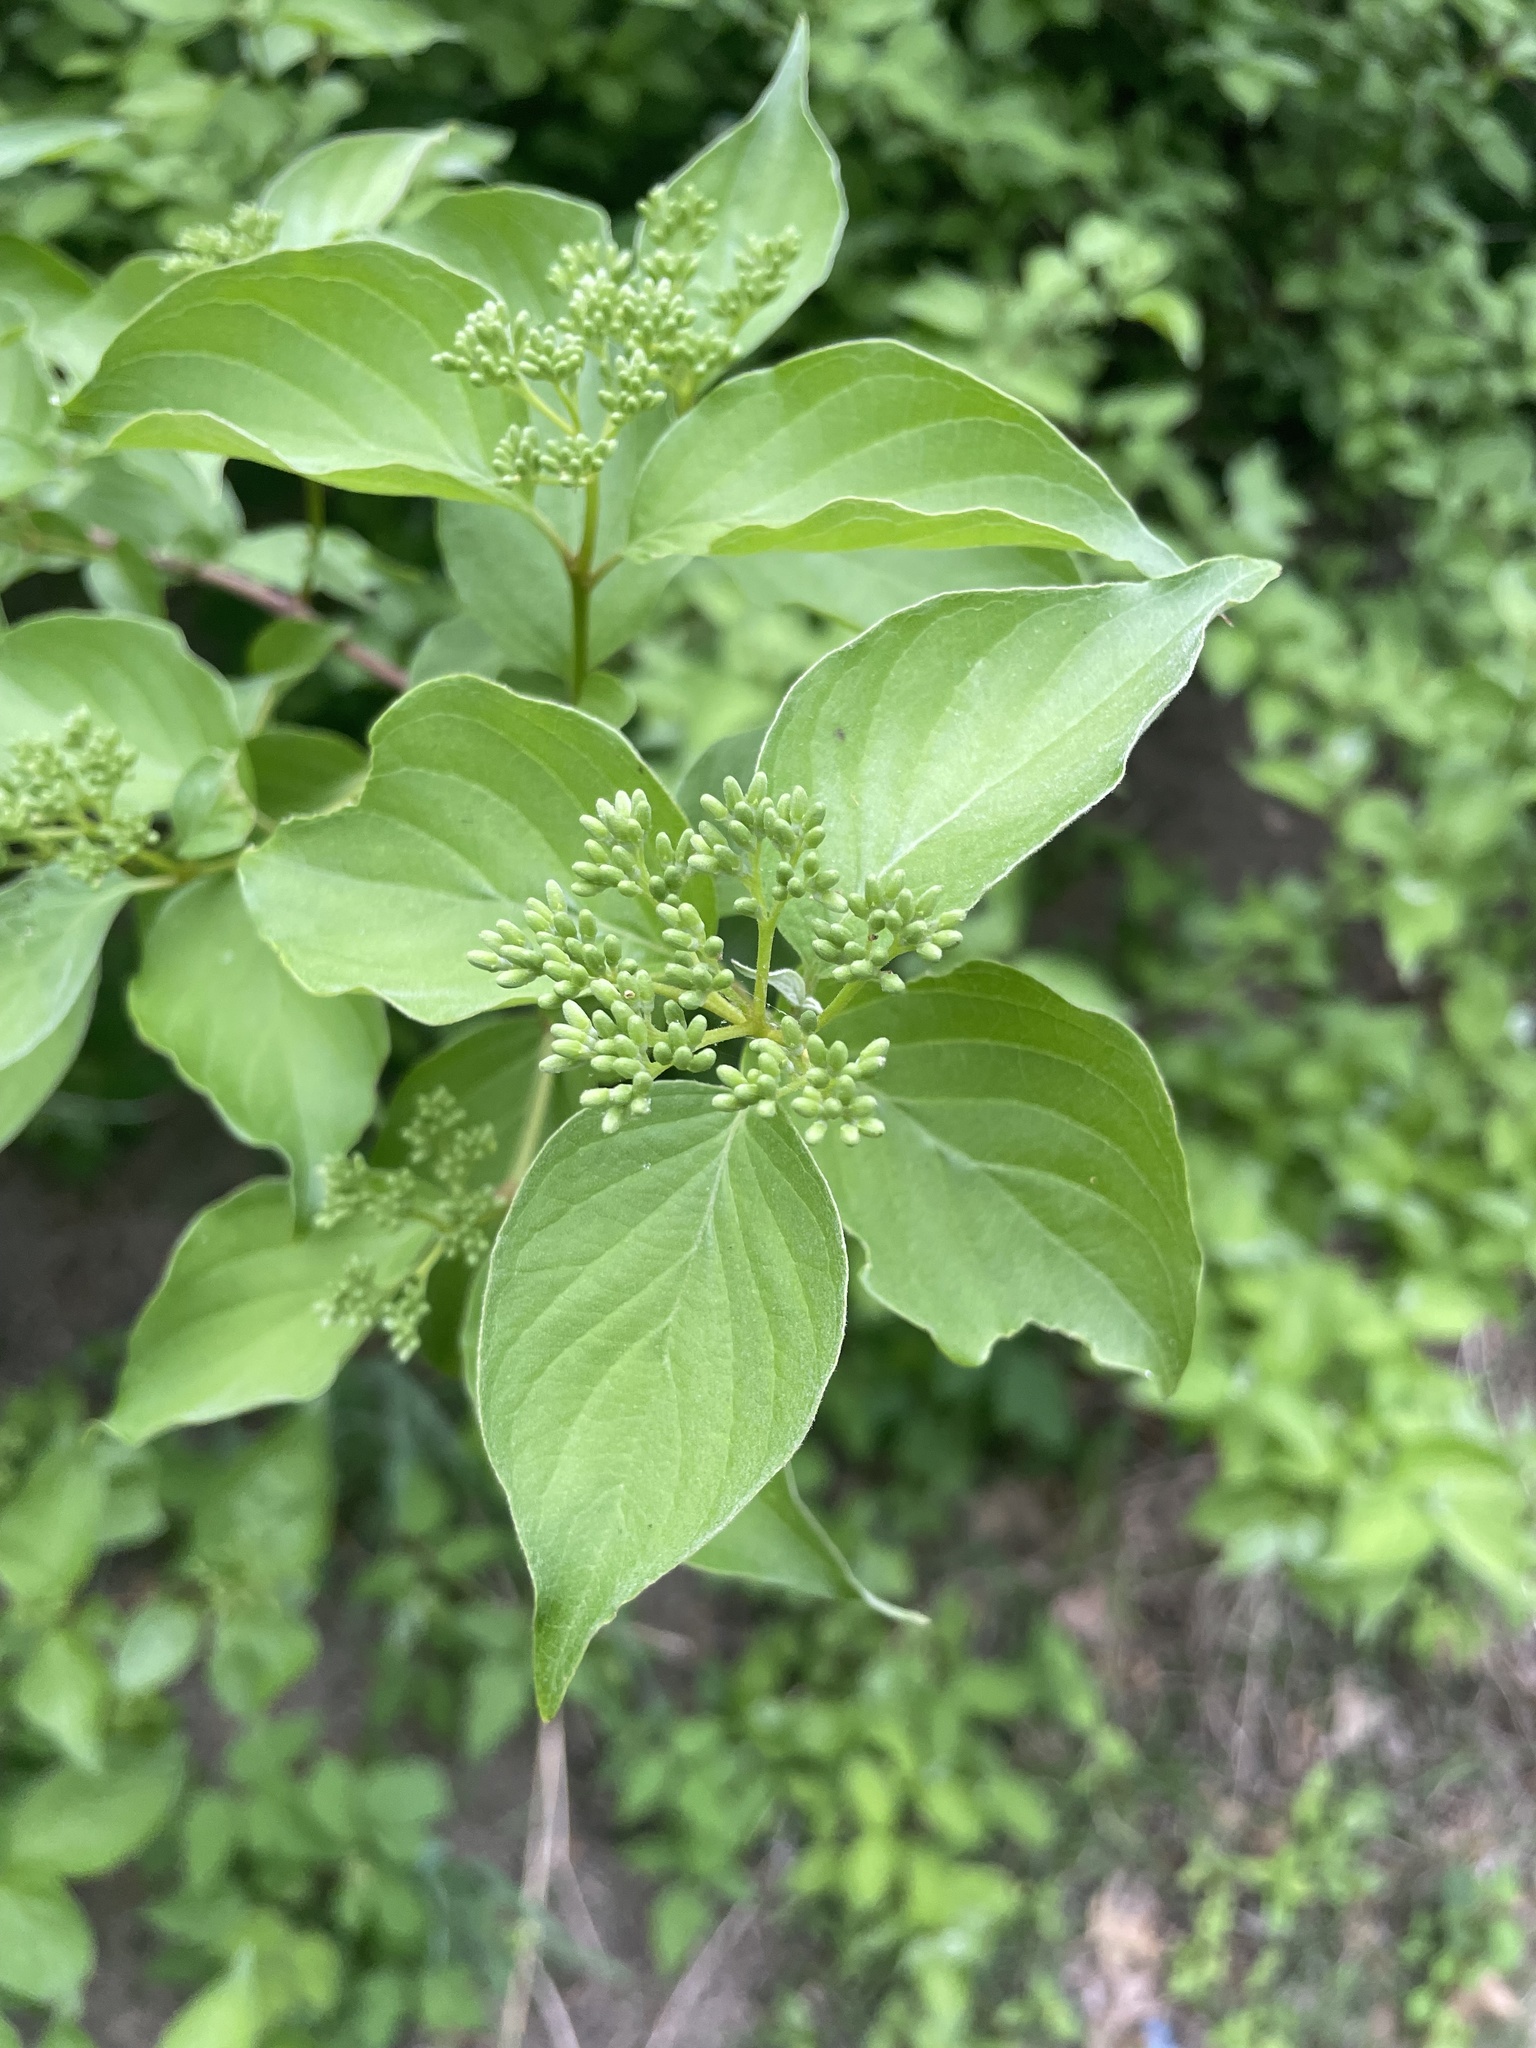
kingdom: Plantae
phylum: Tracheophyta
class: Magnoliopsida
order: Cornales
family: Cornaceae
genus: Cornus
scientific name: Cornus drummondii
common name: Rough-leaf dogwood
